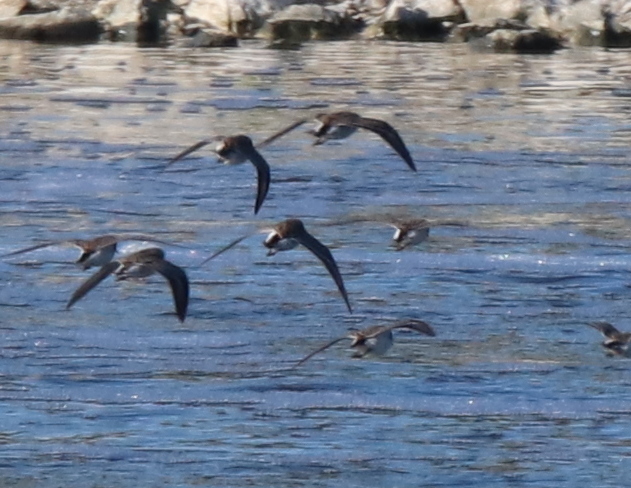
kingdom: Animalia
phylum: Chordata
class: Aves
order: Charadriiformes
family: Scolopacidae
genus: Calidris
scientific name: Calidris
